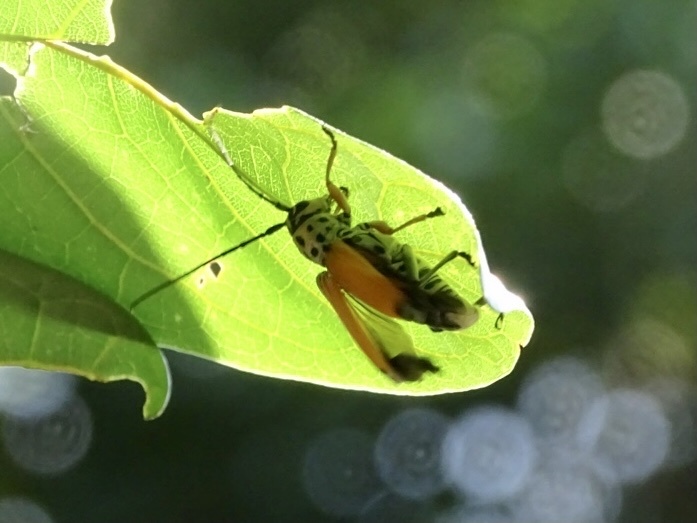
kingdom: Animalia
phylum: Arthropoda
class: Insecta
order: Coleoptera
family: Cerambycidae
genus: Glenea
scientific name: Glenea cantor
